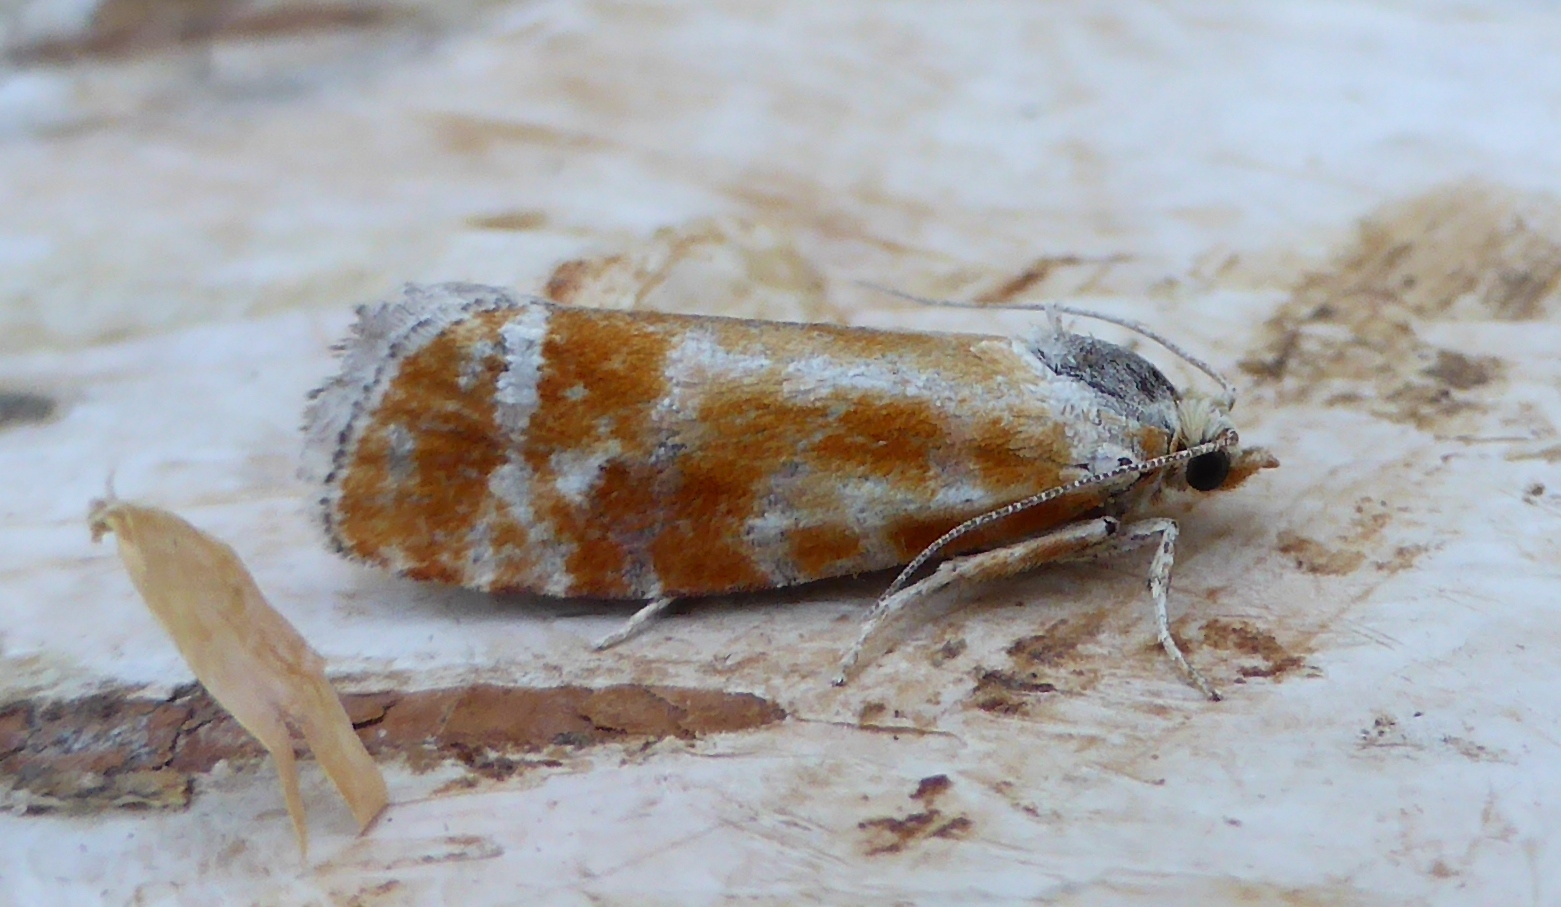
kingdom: Animalia
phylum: Arthropoda
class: Insecta
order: Lepidoptera
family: Tortricidae
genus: Rhyacionia
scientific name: Rhyacionia buoliana
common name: European pine shoot moth
